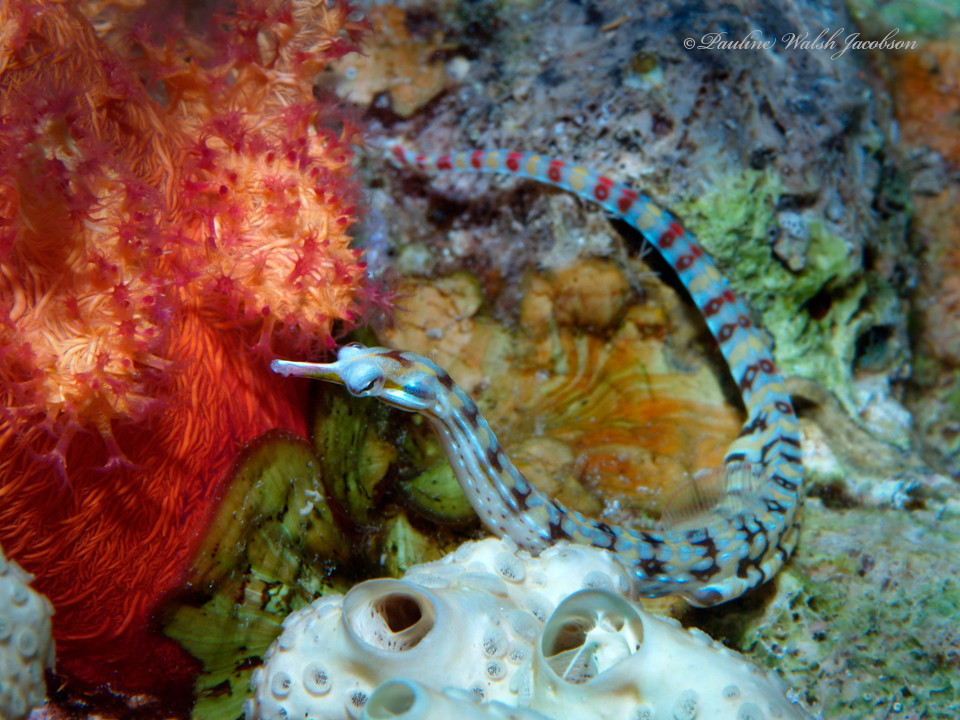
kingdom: Animalia
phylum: Chordata
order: Syngnathiformes
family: Syngnathidae
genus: Corythoichthys
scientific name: Corythoichthys flavofasciatus
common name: Banded pipefish
